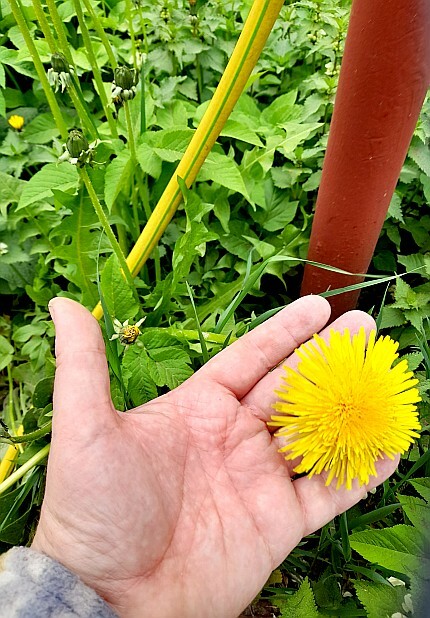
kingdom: Plantae
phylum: Tracheophyta
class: Magnoliopsida
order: Asterales
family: Asteraceae
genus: Taraxacum
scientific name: Taraxacum officinale
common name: Common dandelion
